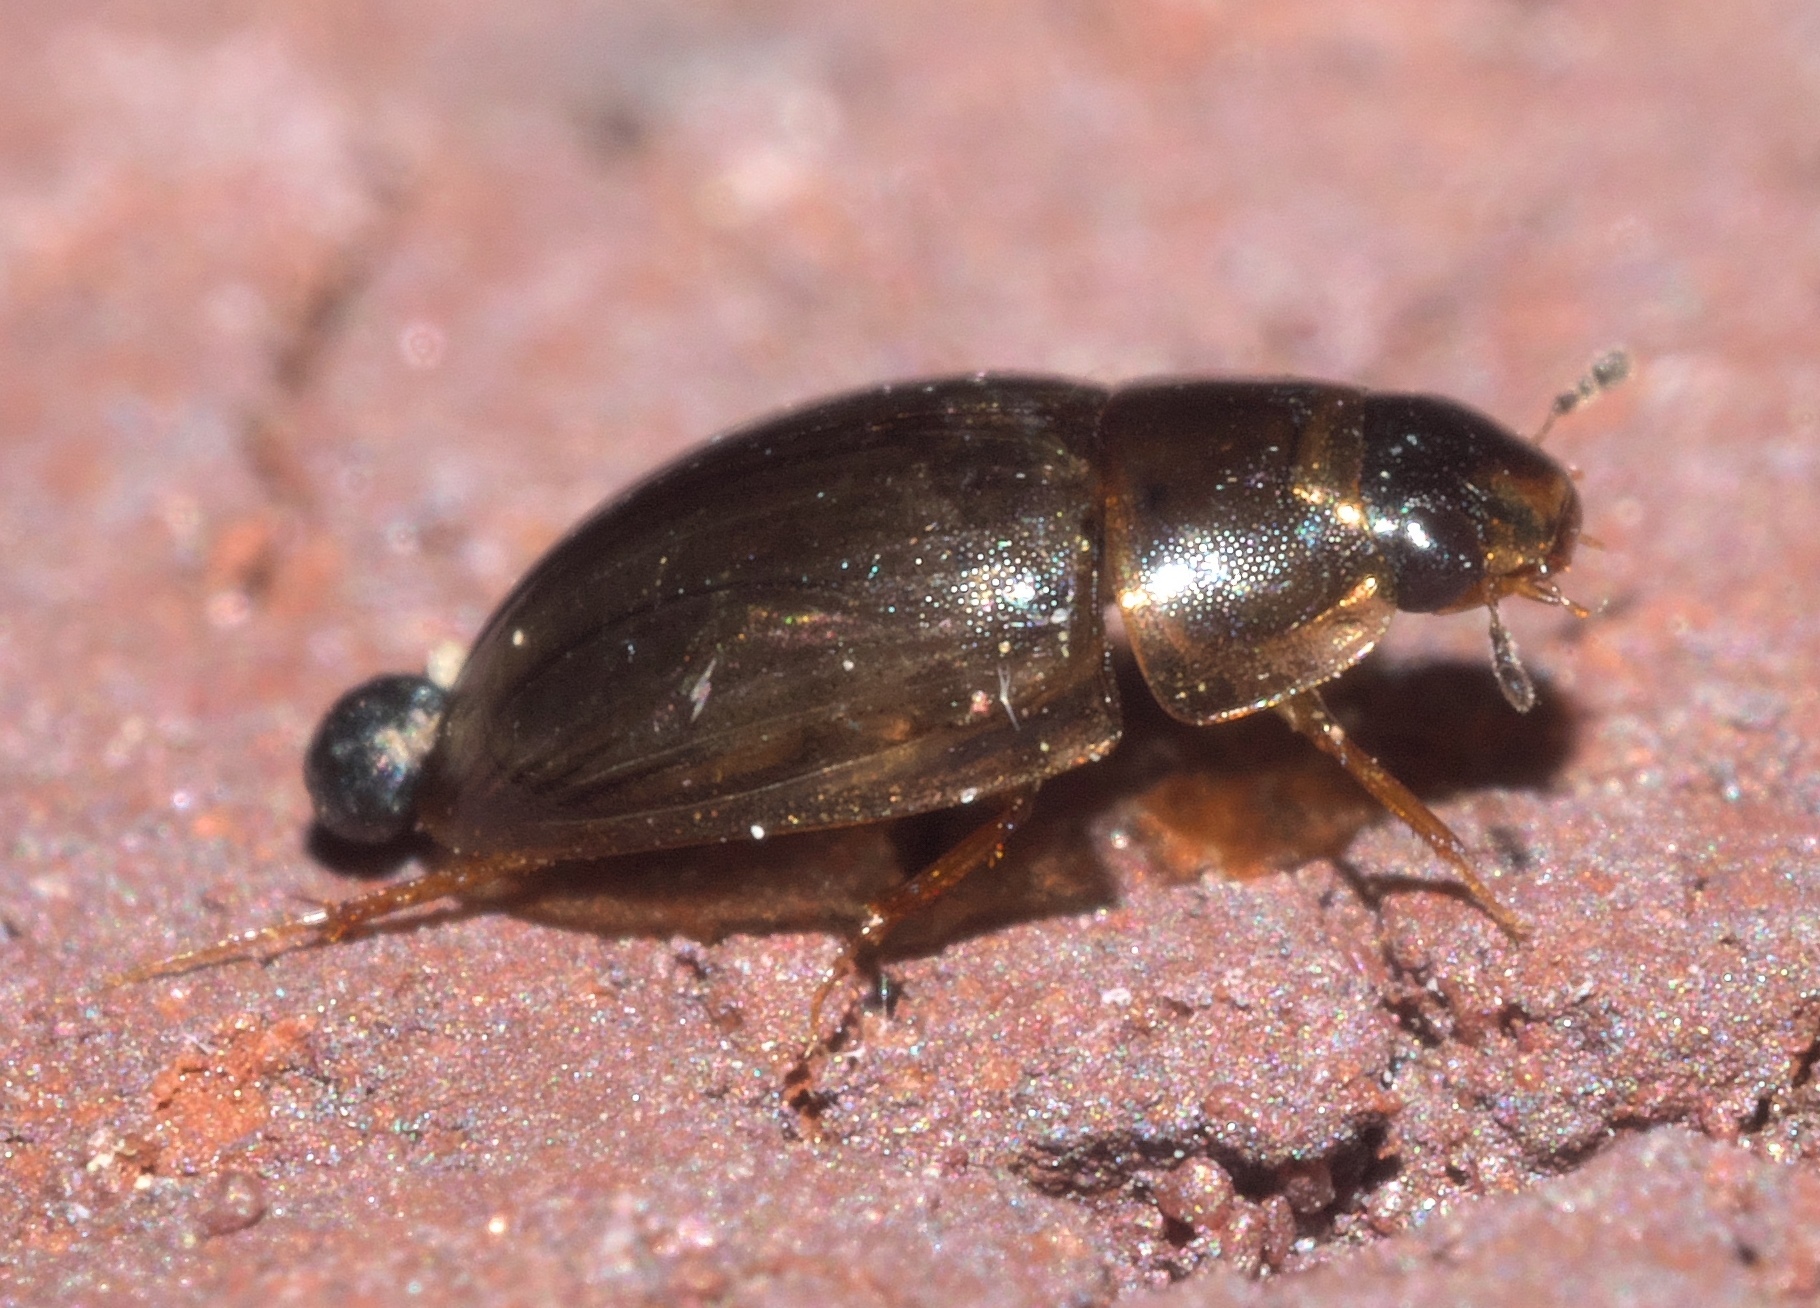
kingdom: Animalia
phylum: Arthropoda
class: Insecta
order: Coleoptera
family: Hydrophilidae
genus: Enochrus
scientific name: Enochrus
